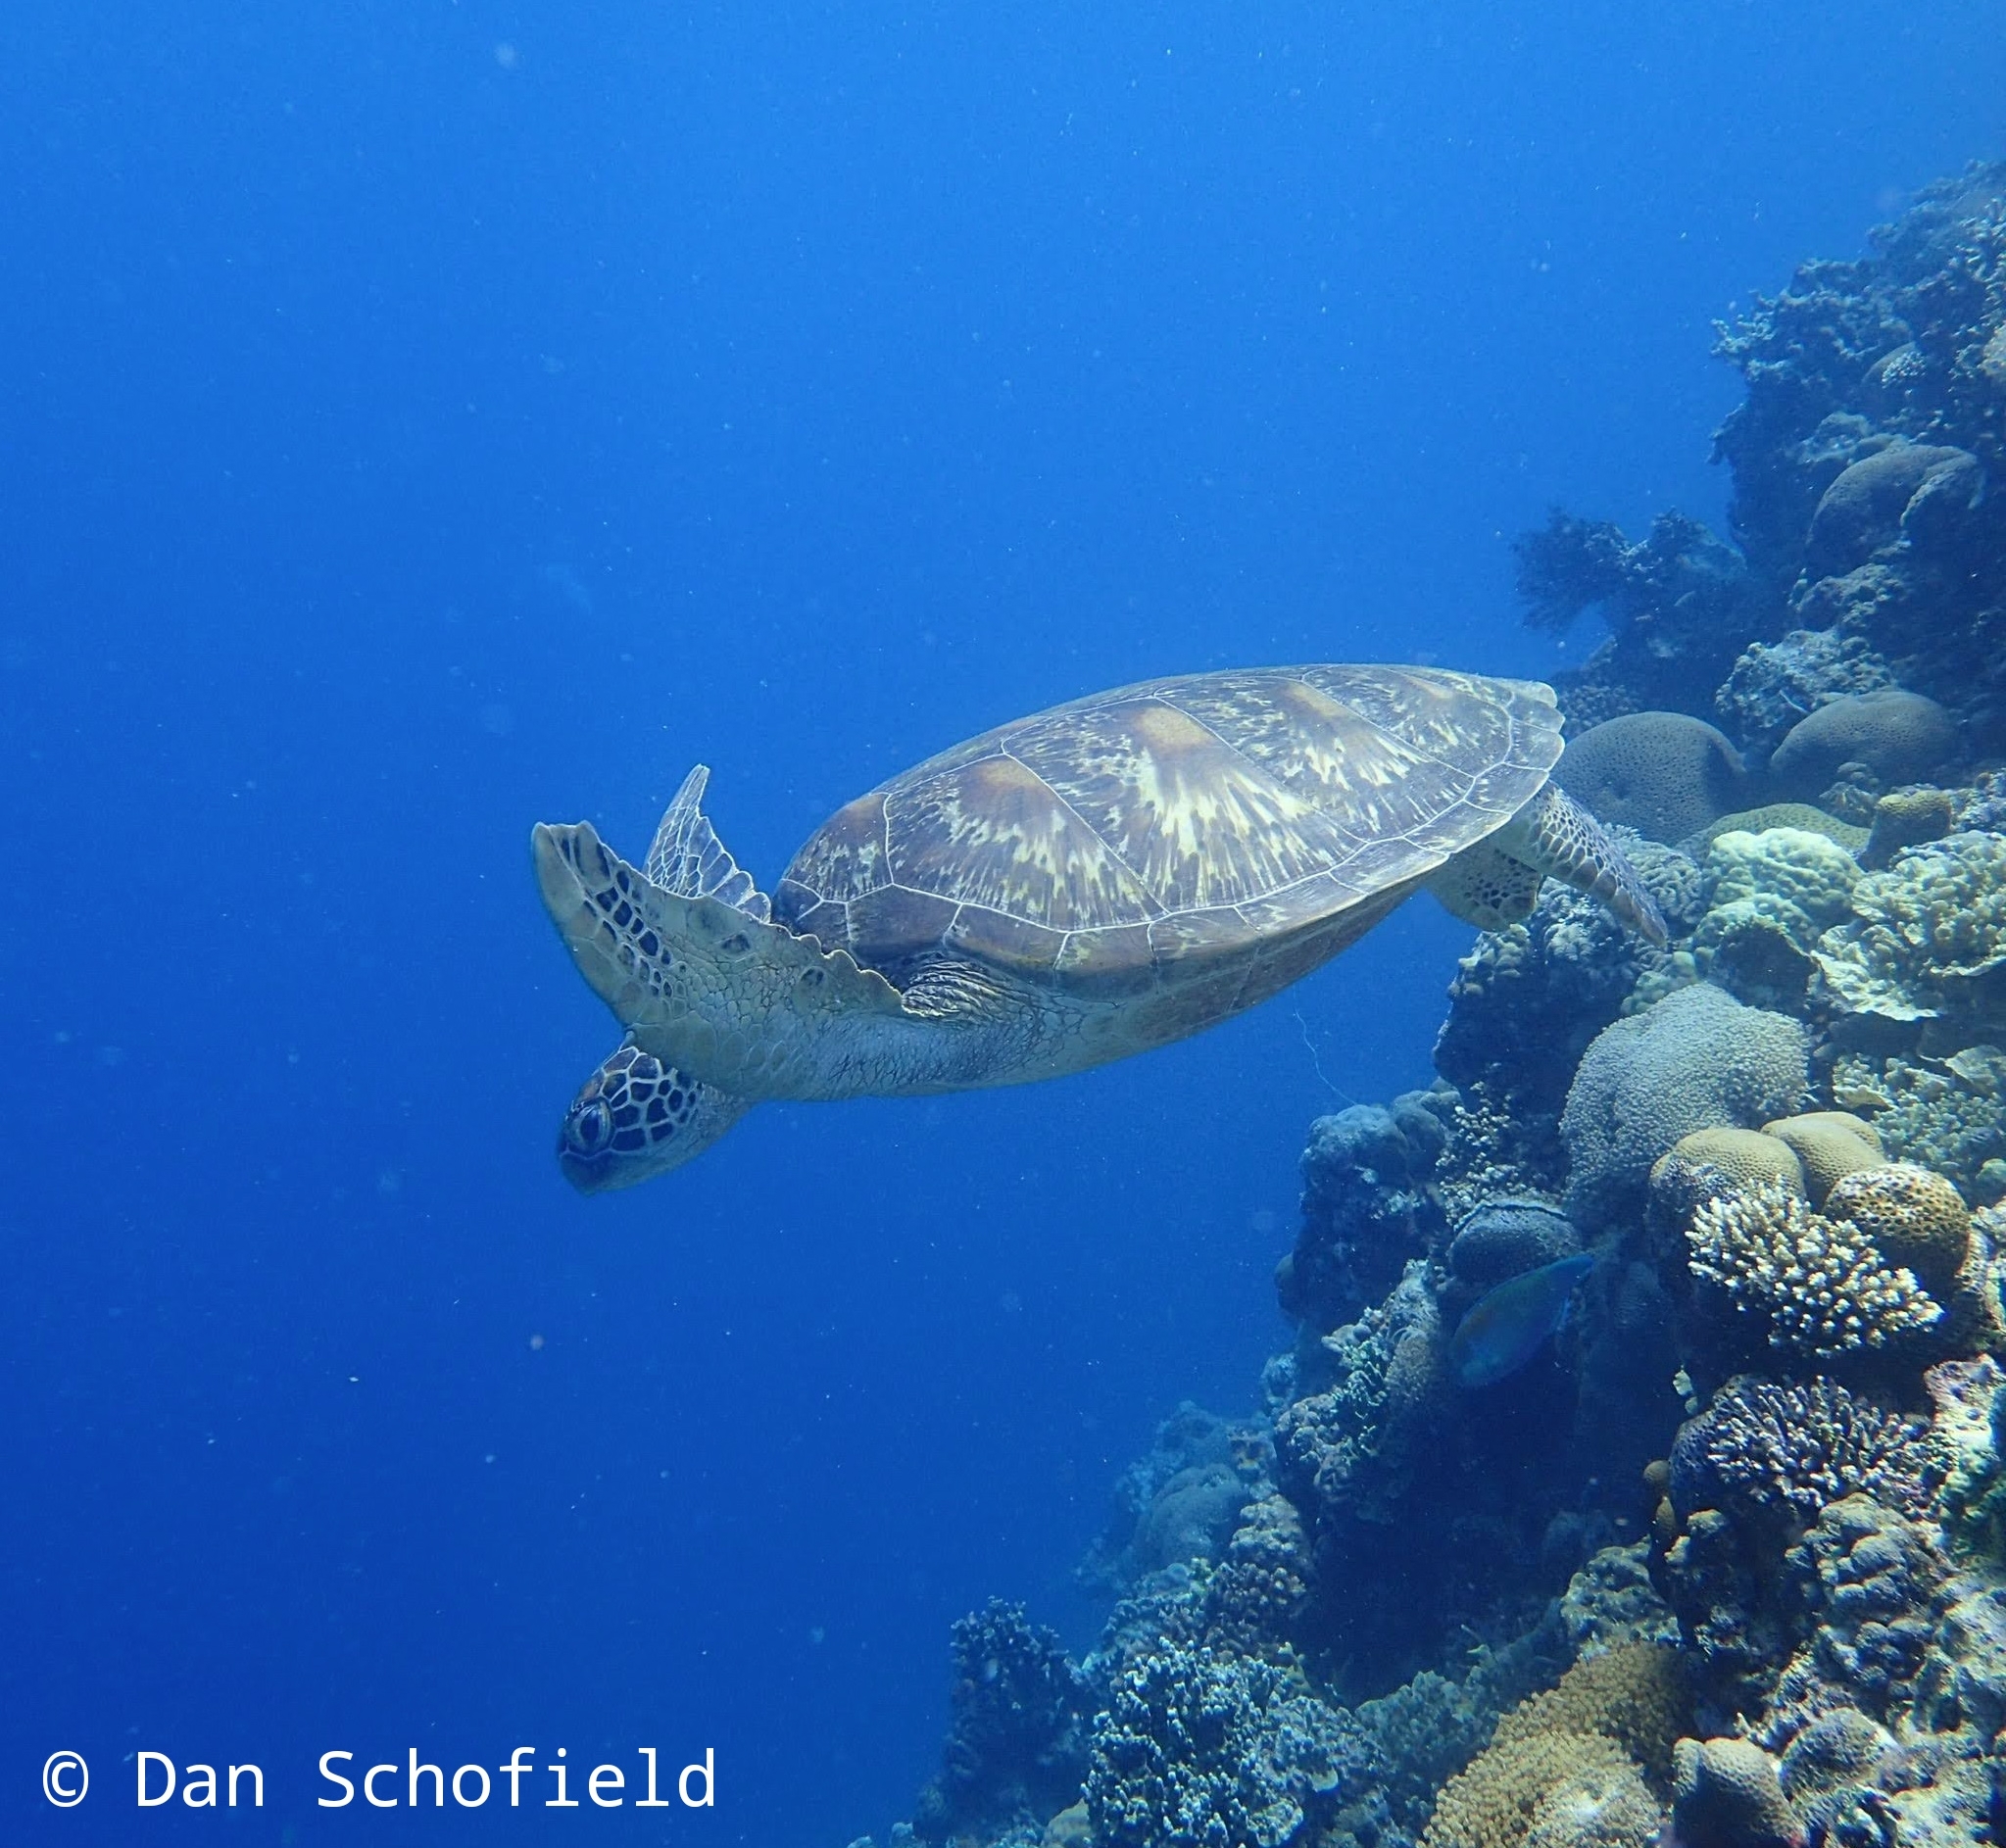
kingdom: Animalia
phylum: Chordata
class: Testudines
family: Cheloniidae
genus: Chelonia
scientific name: Chelonia mydas
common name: Green turtle
